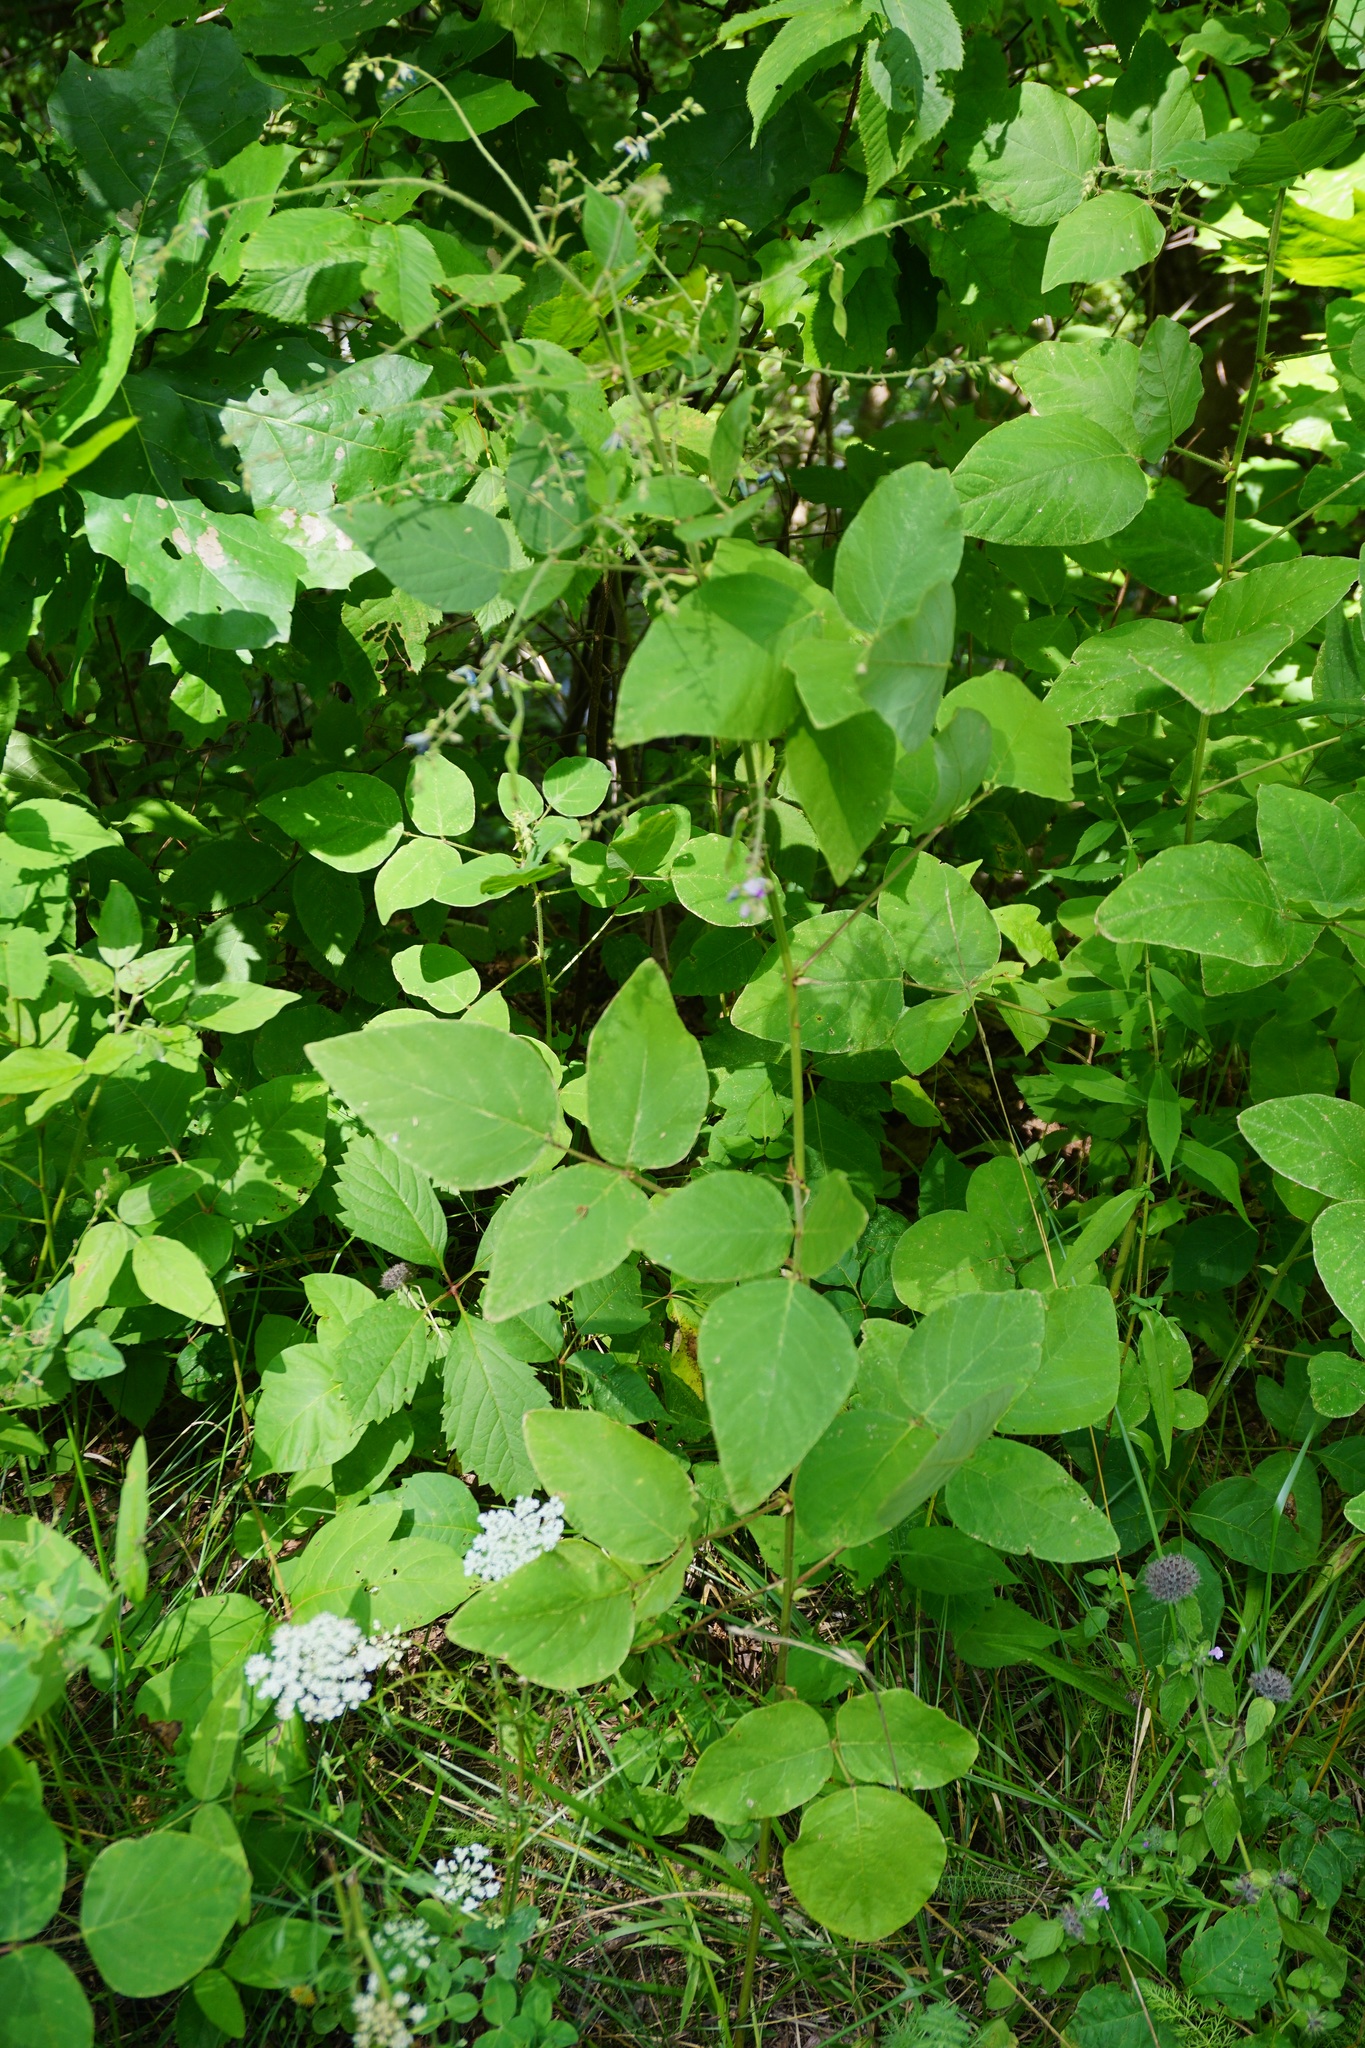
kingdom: Plantae
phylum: Tracheophyta
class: Magnoliopsida
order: Fabales
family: Fabaceae
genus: Desmodium
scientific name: Desmodium canescens
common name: Hoary tick-clover
